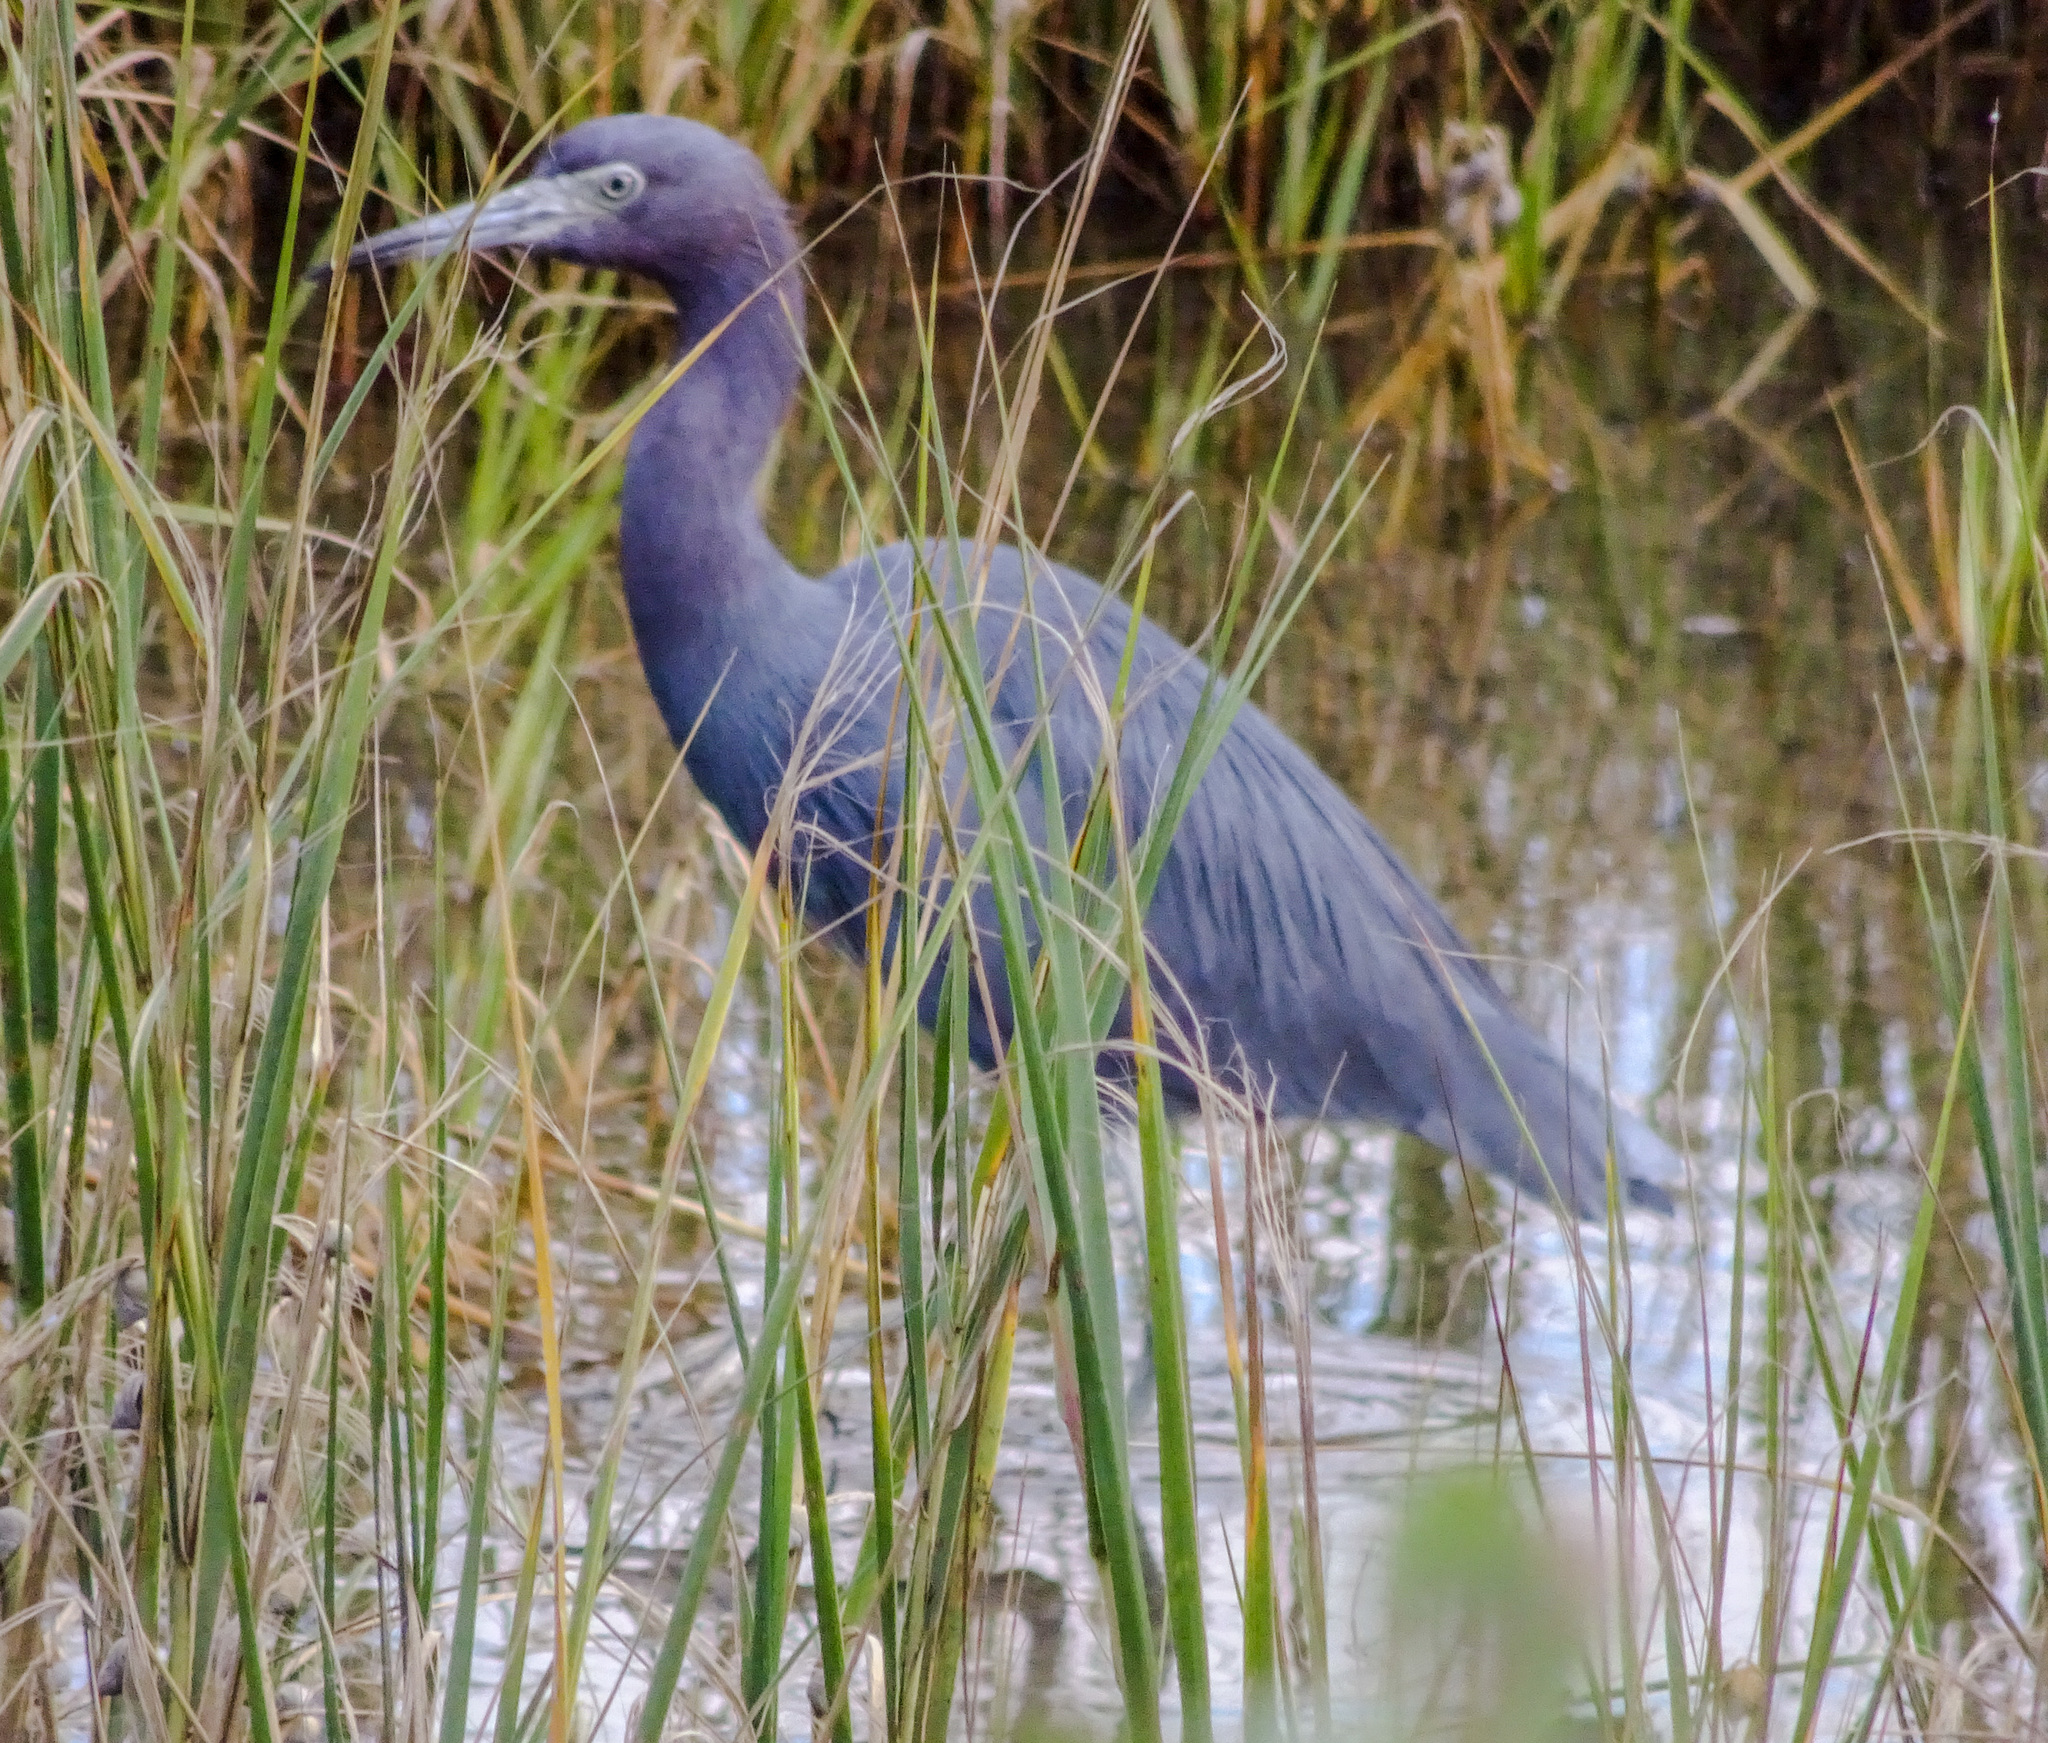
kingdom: Animalia
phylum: Chordata
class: Aves
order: Pelecaniformes
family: Ardeidae
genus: Egretta
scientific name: Egretta caerulea
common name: Little blue heron
